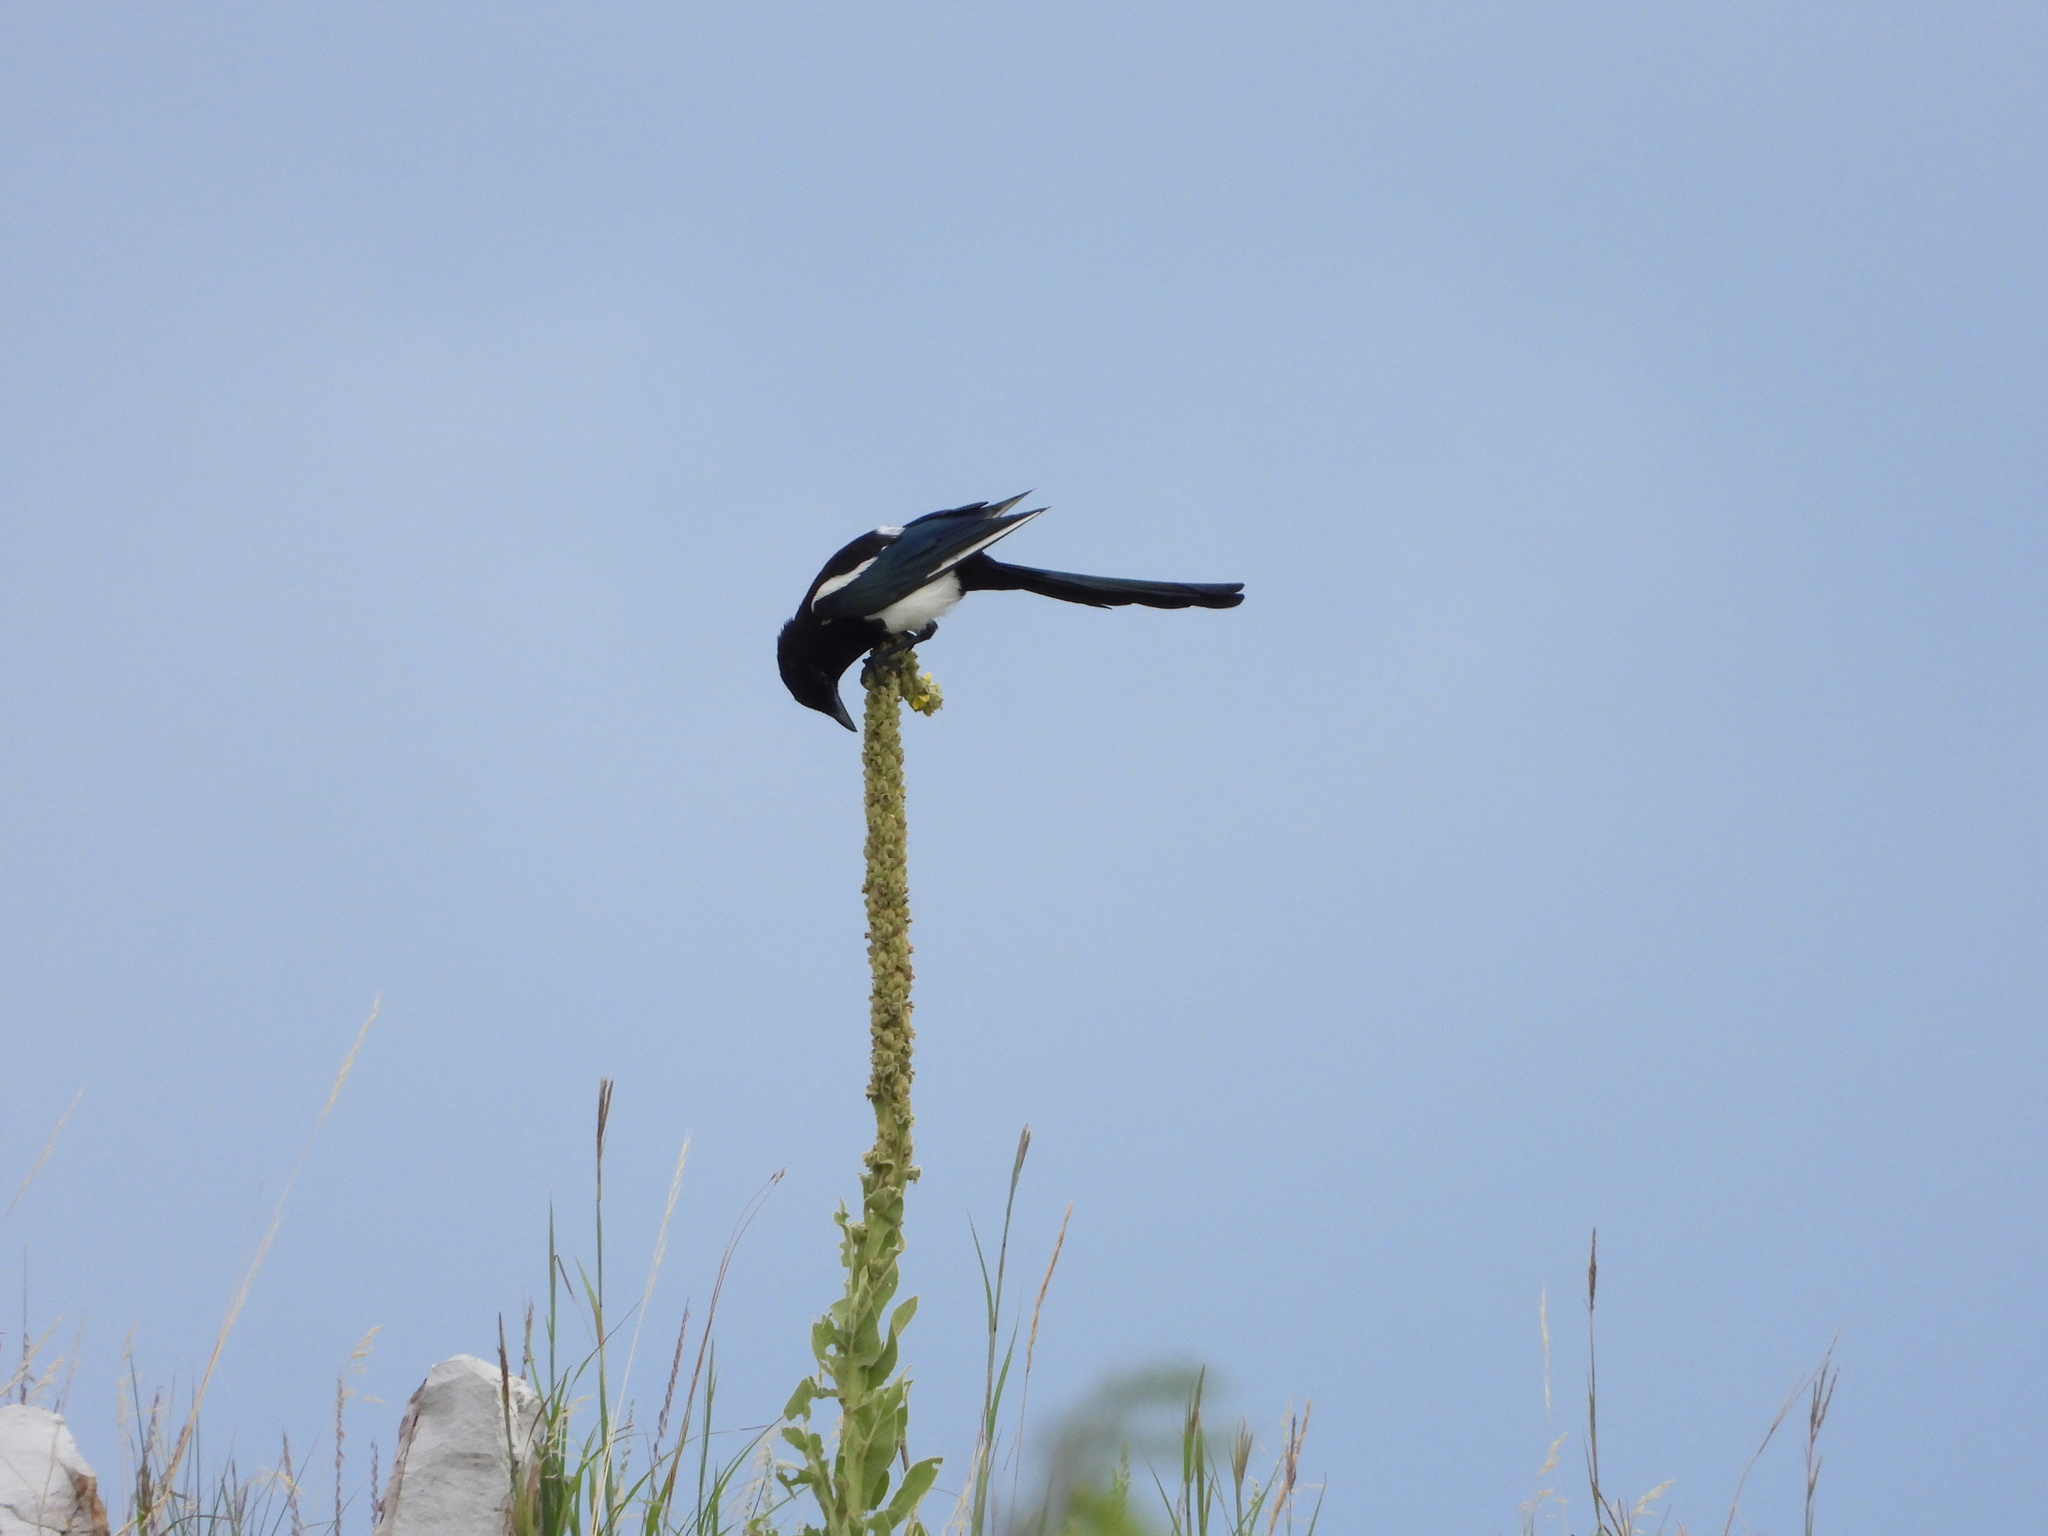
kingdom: Animalia
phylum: Chordata
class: Aves
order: Passeriformes
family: Corvidae
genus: Pica
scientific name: Pica hudsonia
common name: Black-billed magpie
